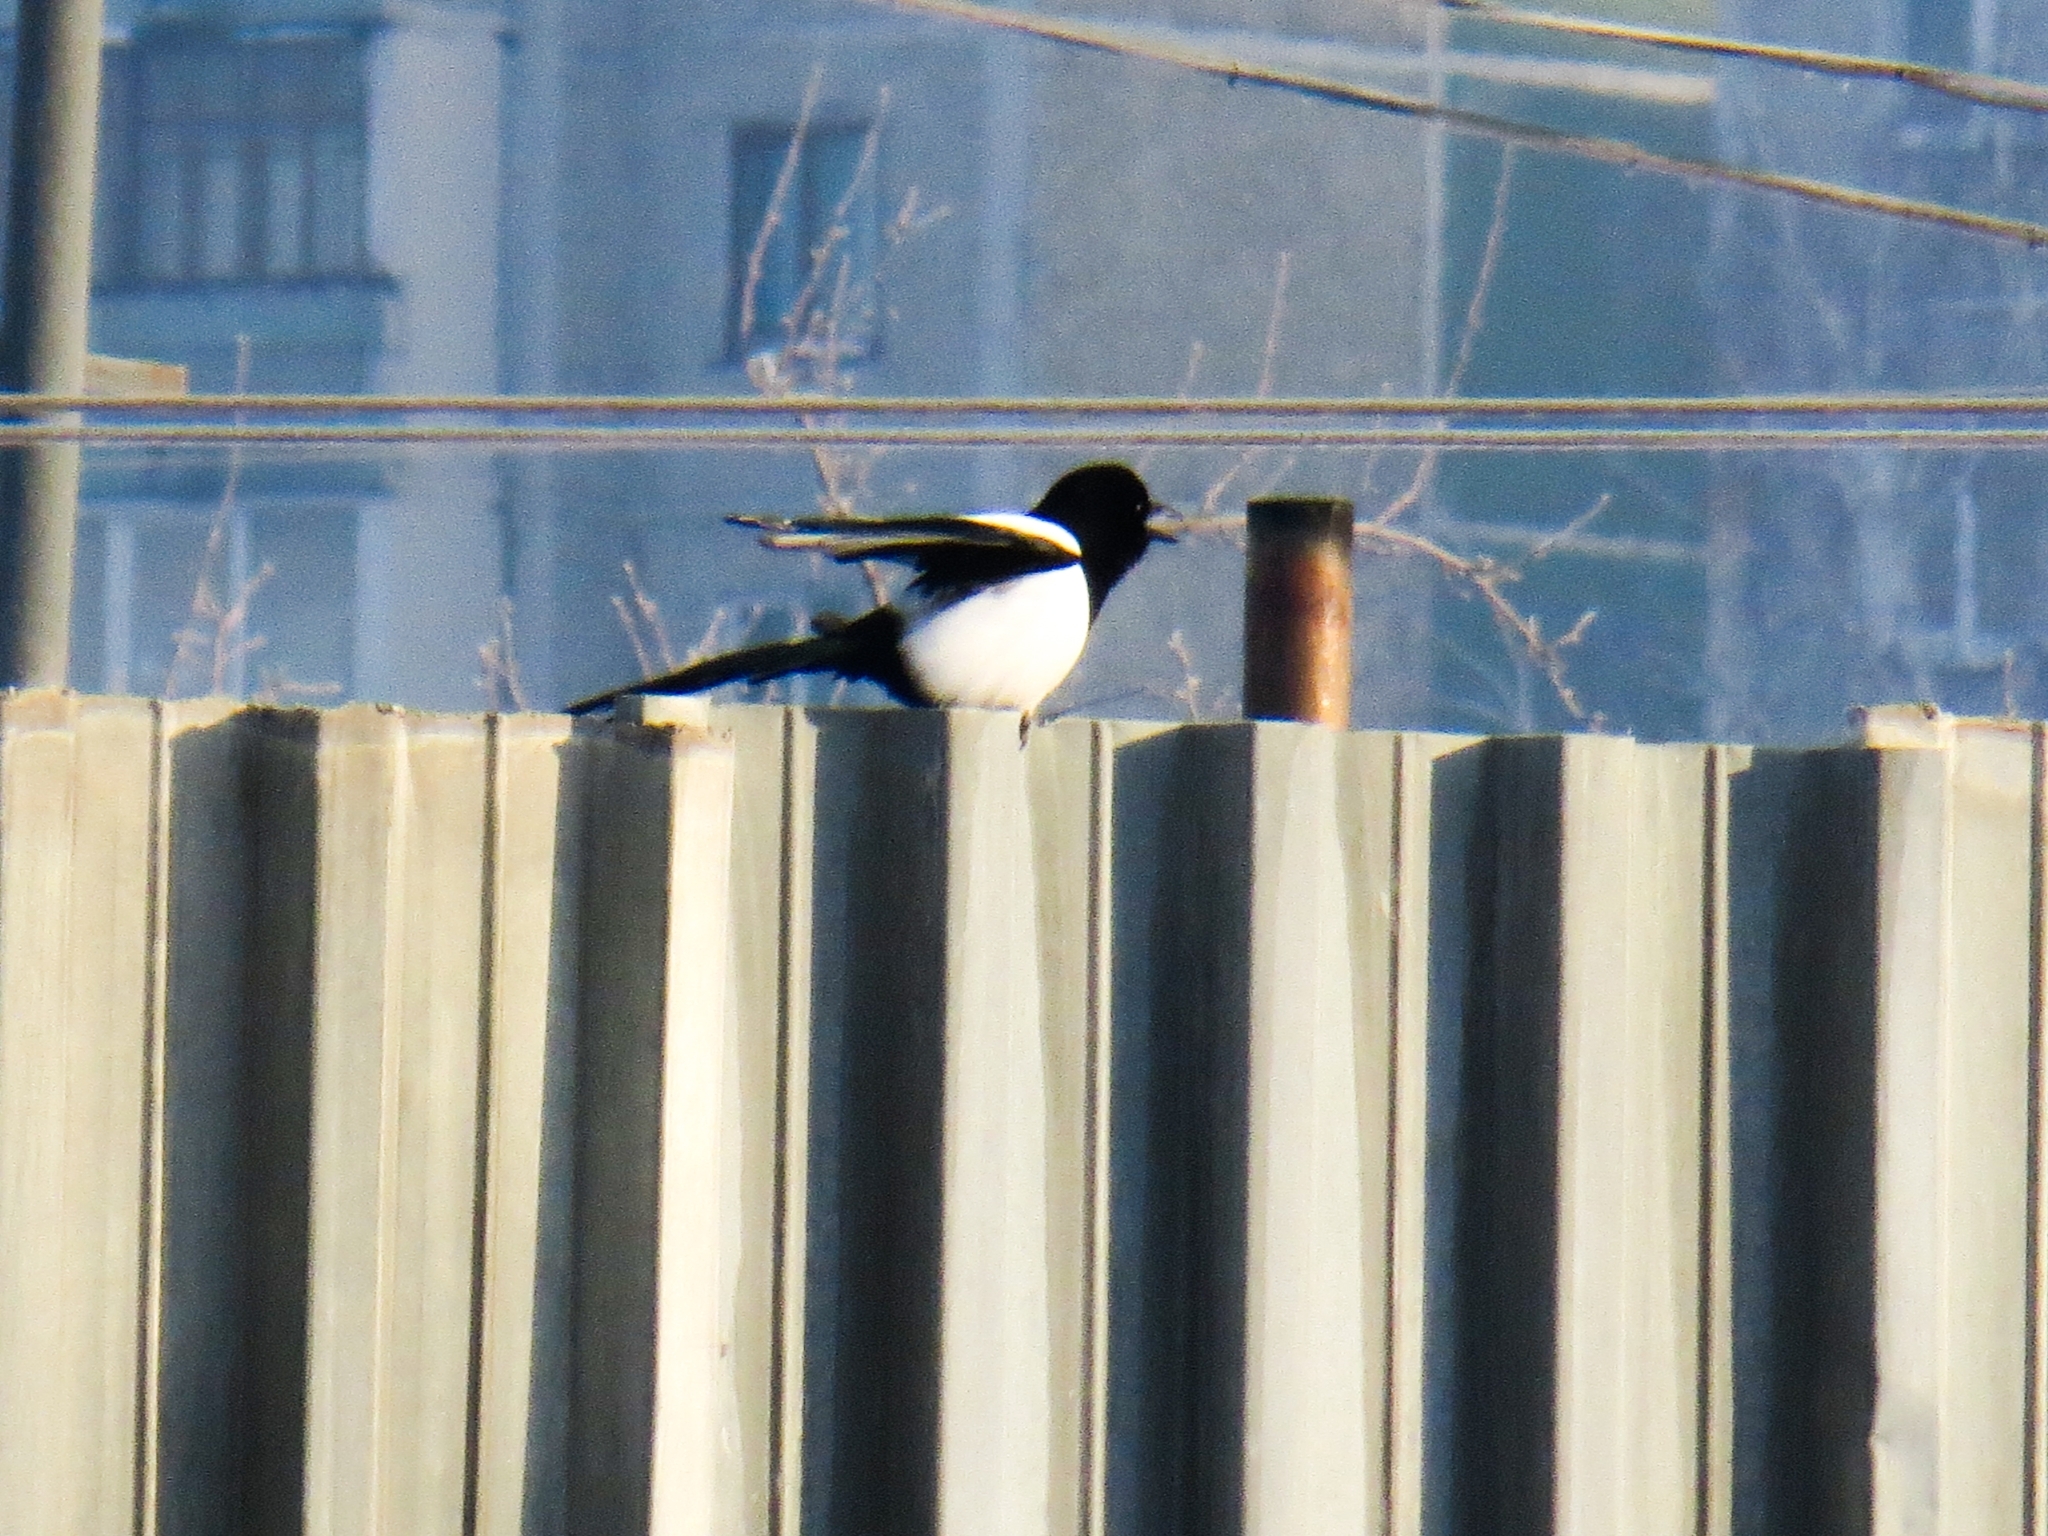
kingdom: Animalia
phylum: Chordata
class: Aves
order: Passeriformes
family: Corvidae
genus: Pica
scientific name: Pica pica
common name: Eurasian magpie
